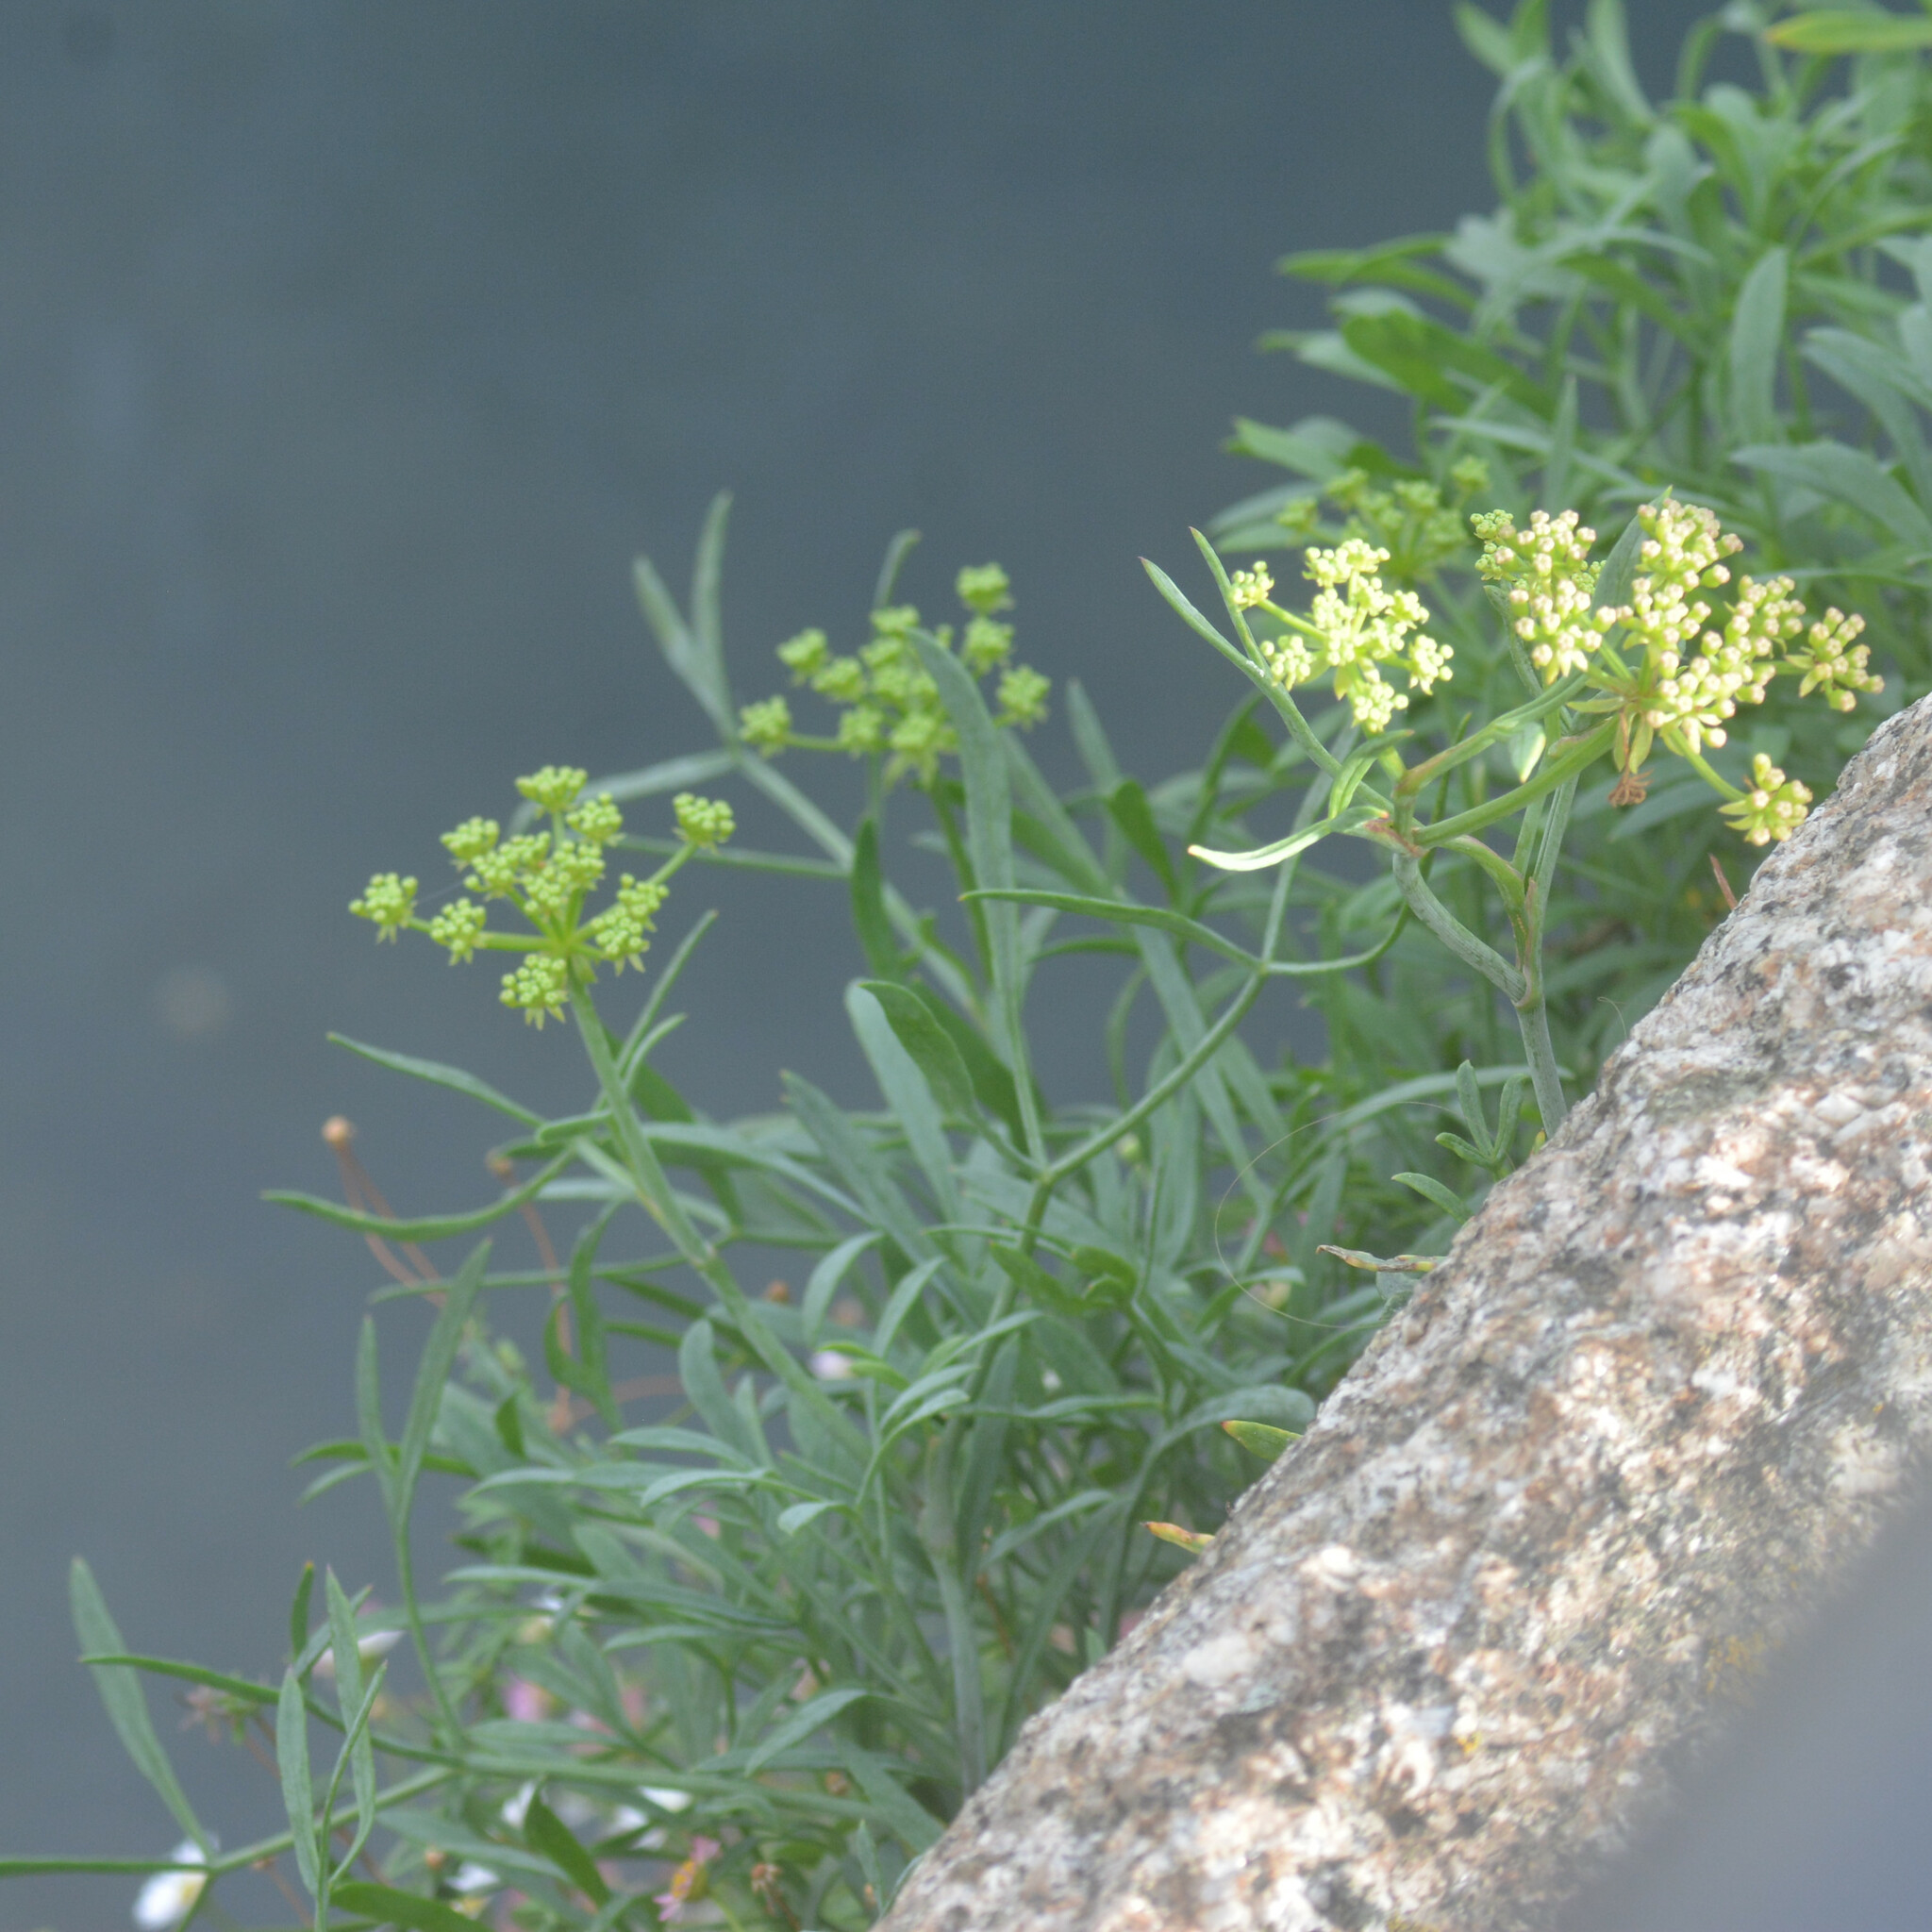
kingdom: Plantae
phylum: Tracheophyta
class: Magnoliopsida
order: Apiales
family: Apiaceae
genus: Crithmum
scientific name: Crithmum maritimum
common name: Rock samphire
